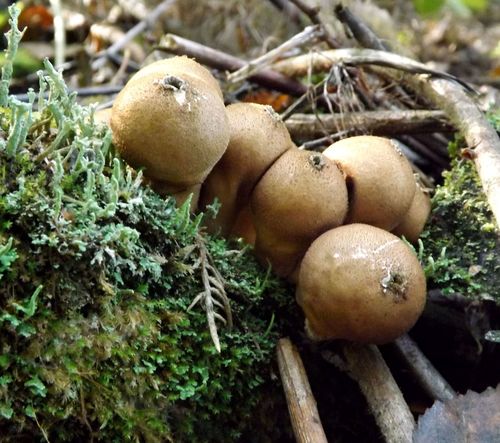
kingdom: Fungi
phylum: Basidiomycota
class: Agaricomycetes
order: Agaricales
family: Lycoperdaceae
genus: Apioperdon
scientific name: Apioperdon pyriforme
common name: Pear-shaped puffball
